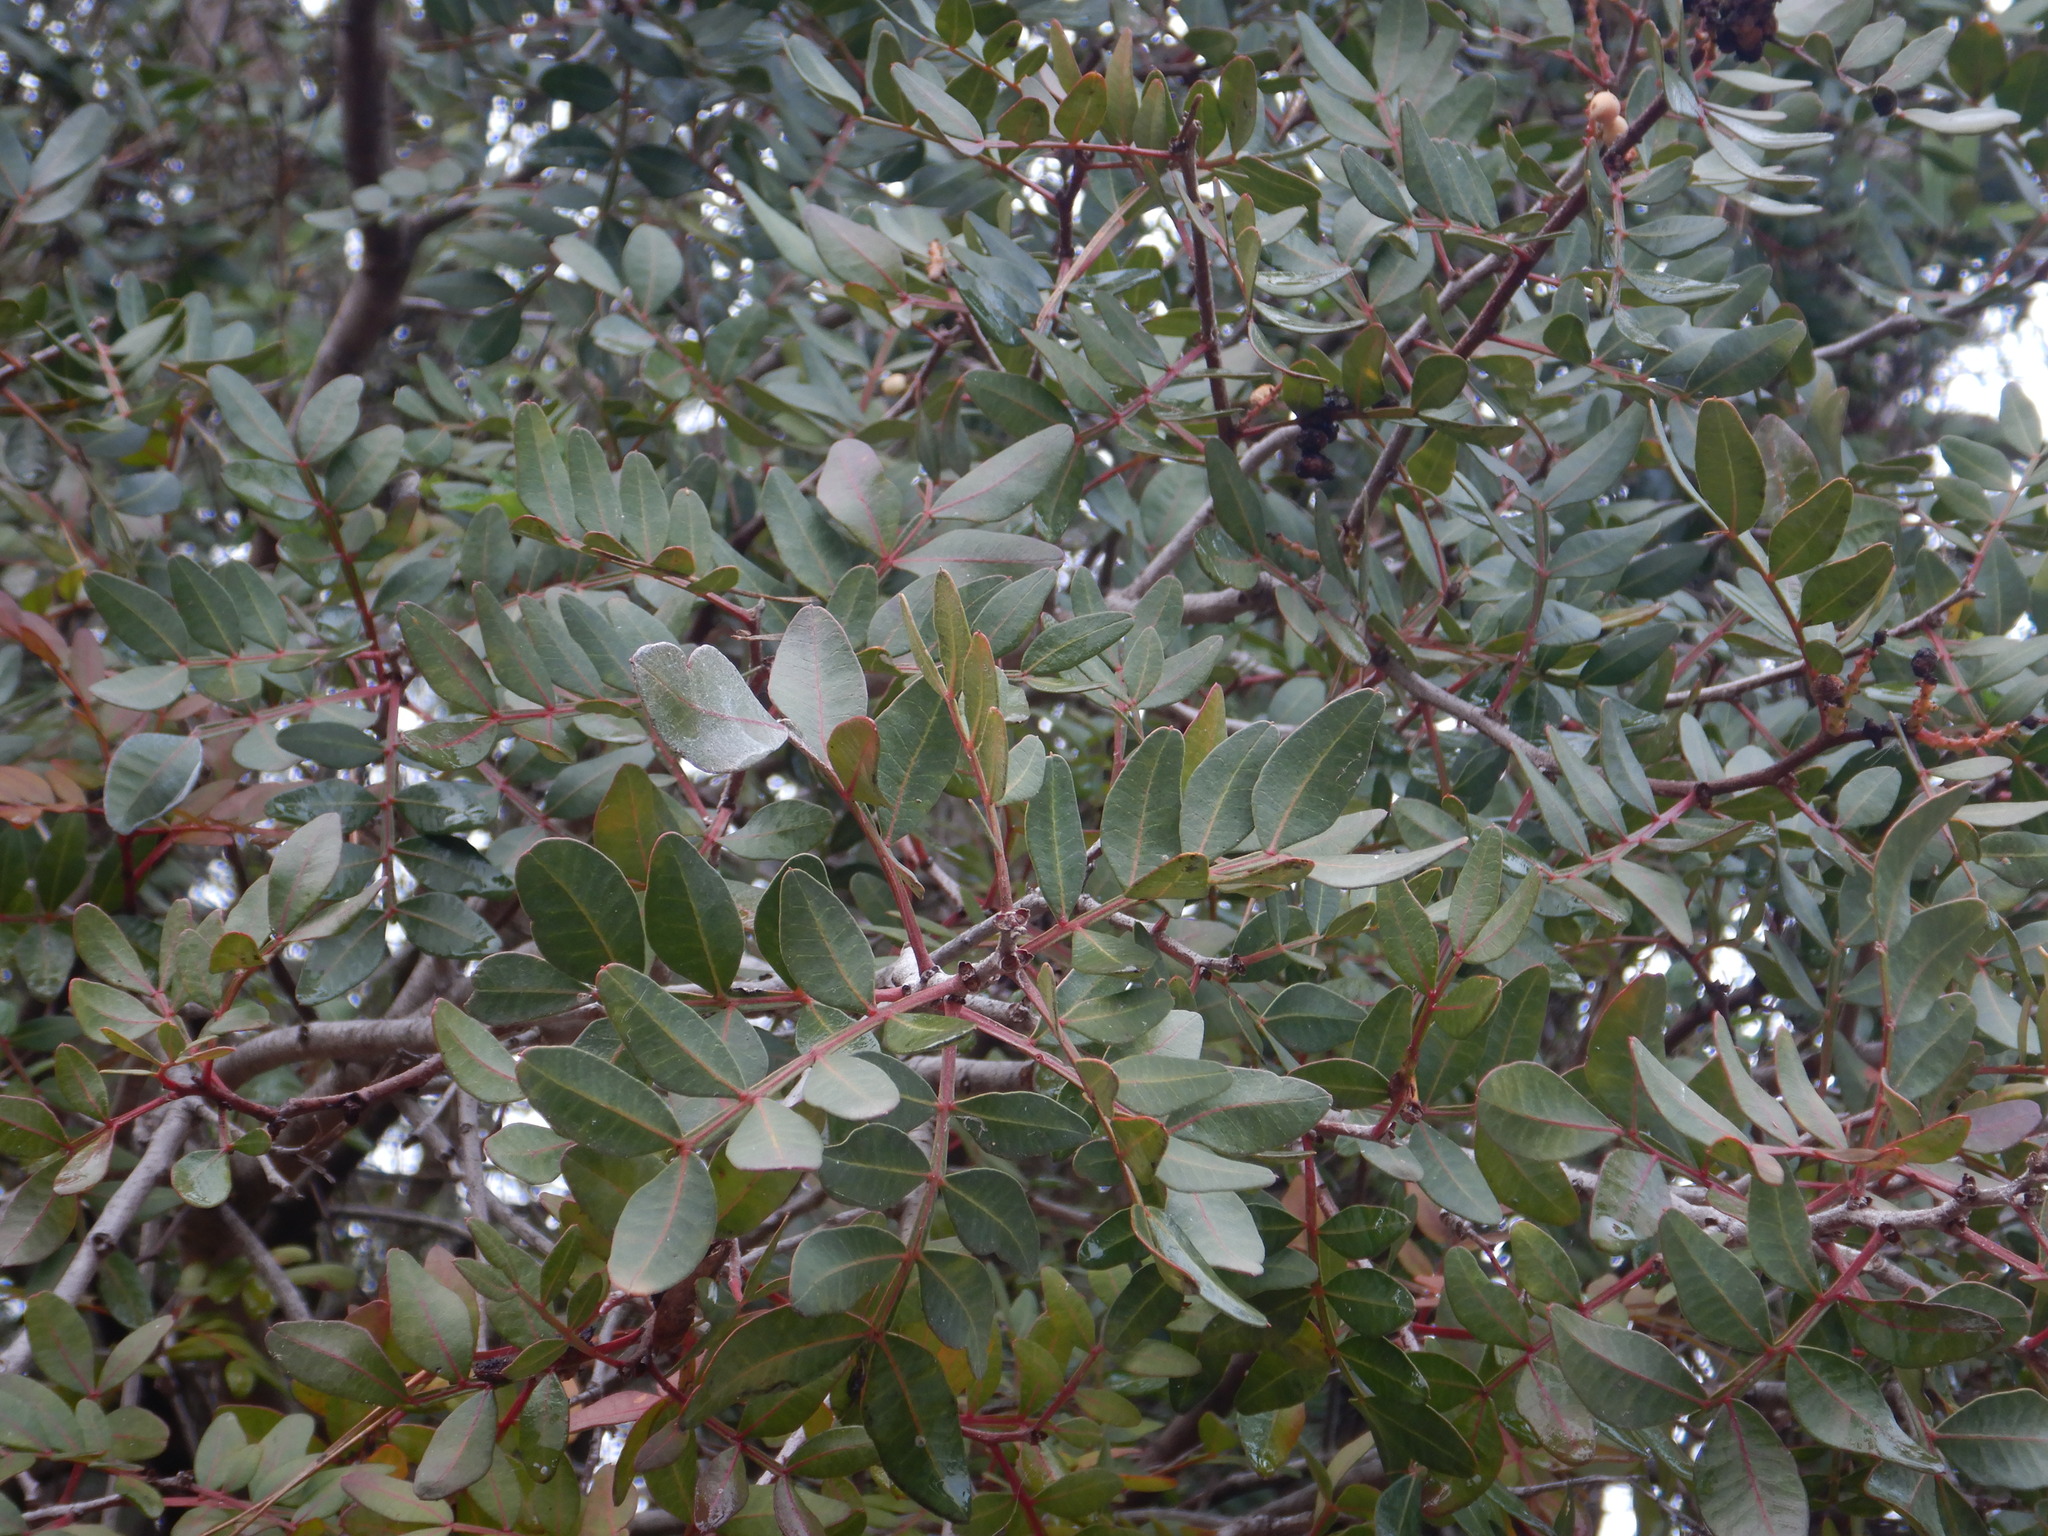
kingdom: Plantae
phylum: Tracheophyta
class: Magnoliopsida
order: Sapindales
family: Anacardiaceae
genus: Pistacia
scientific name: Pistacia lentiscus
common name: Lentisk
